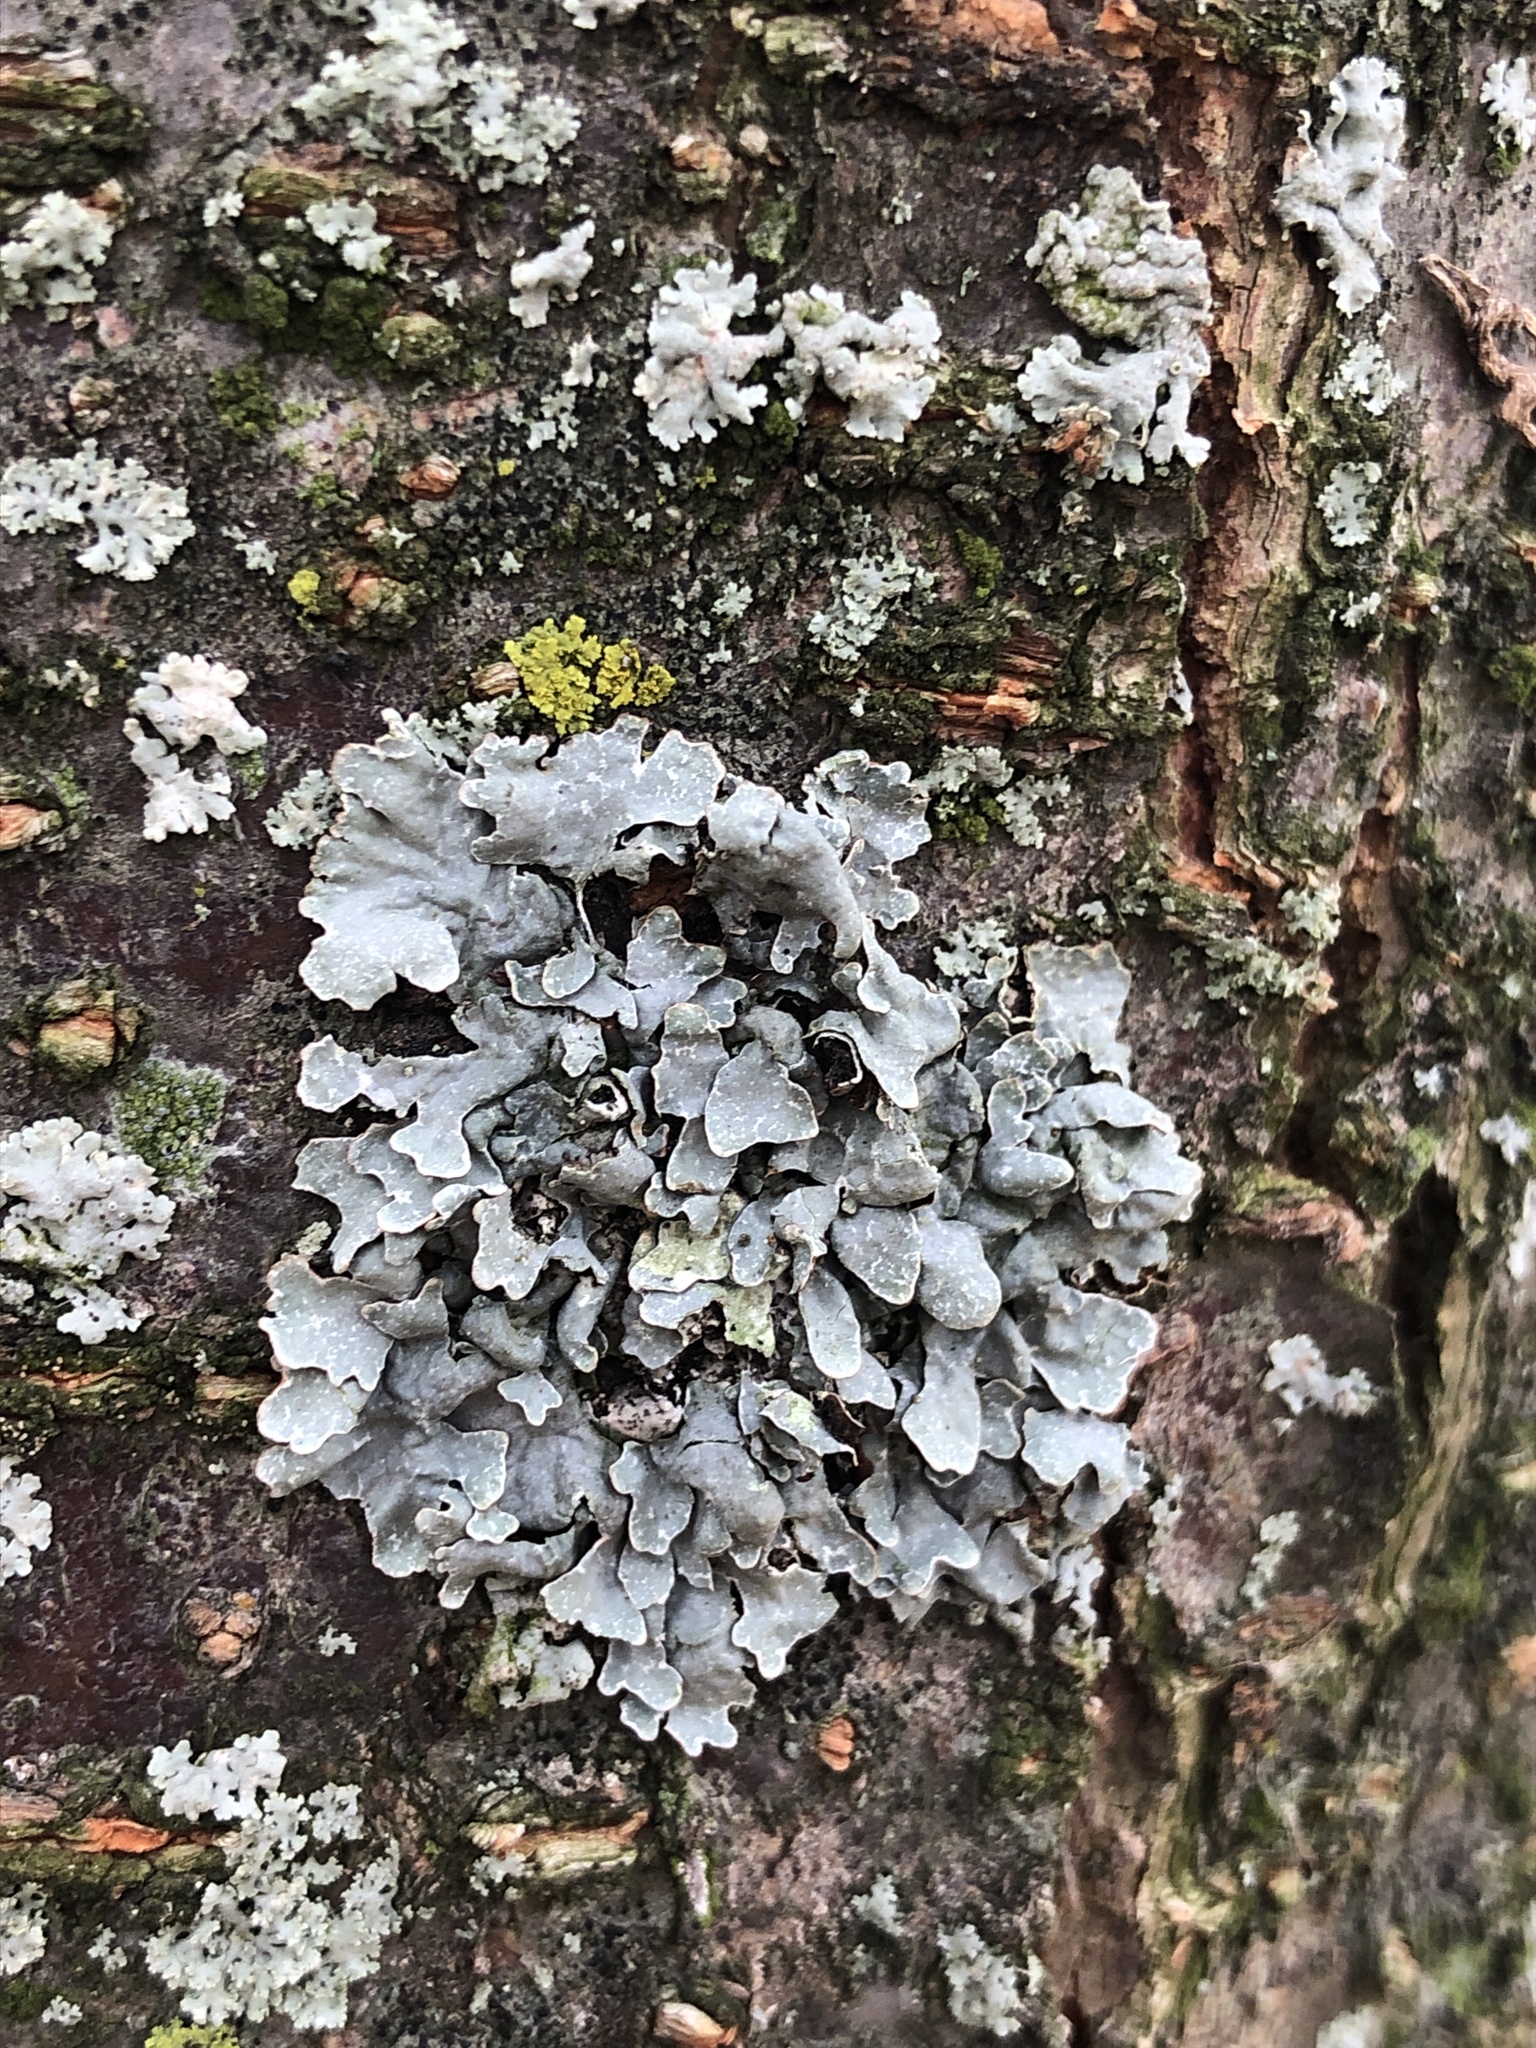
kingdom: Fungi
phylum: Ascomycota
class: Lecanoromycetes
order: Lecanorales
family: Parmeliaceae
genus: Parmelia
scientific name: Parmelia sulcata
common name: Netted shield lichen
